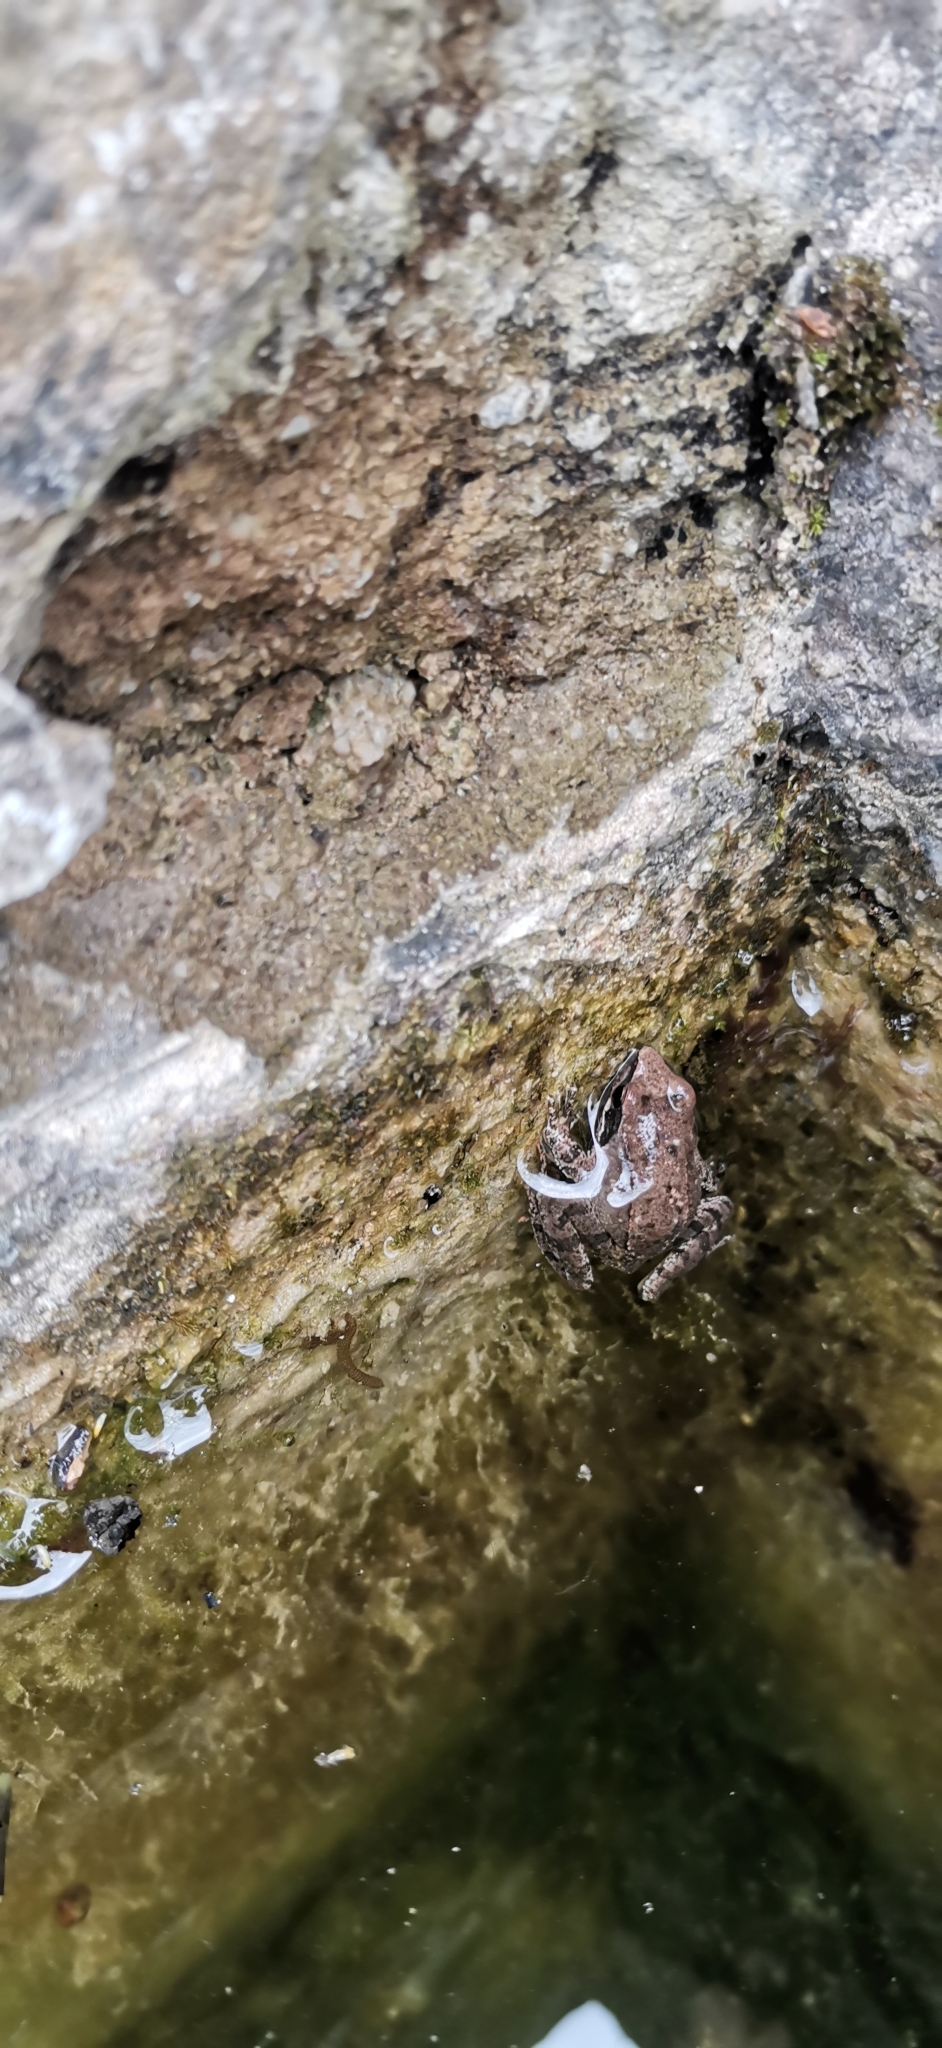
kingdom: Animalia
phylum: Chordata
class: Amphibia
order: Anura
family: Ranidae
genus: Rana
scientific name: Rana italica
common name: Italian stream frog
